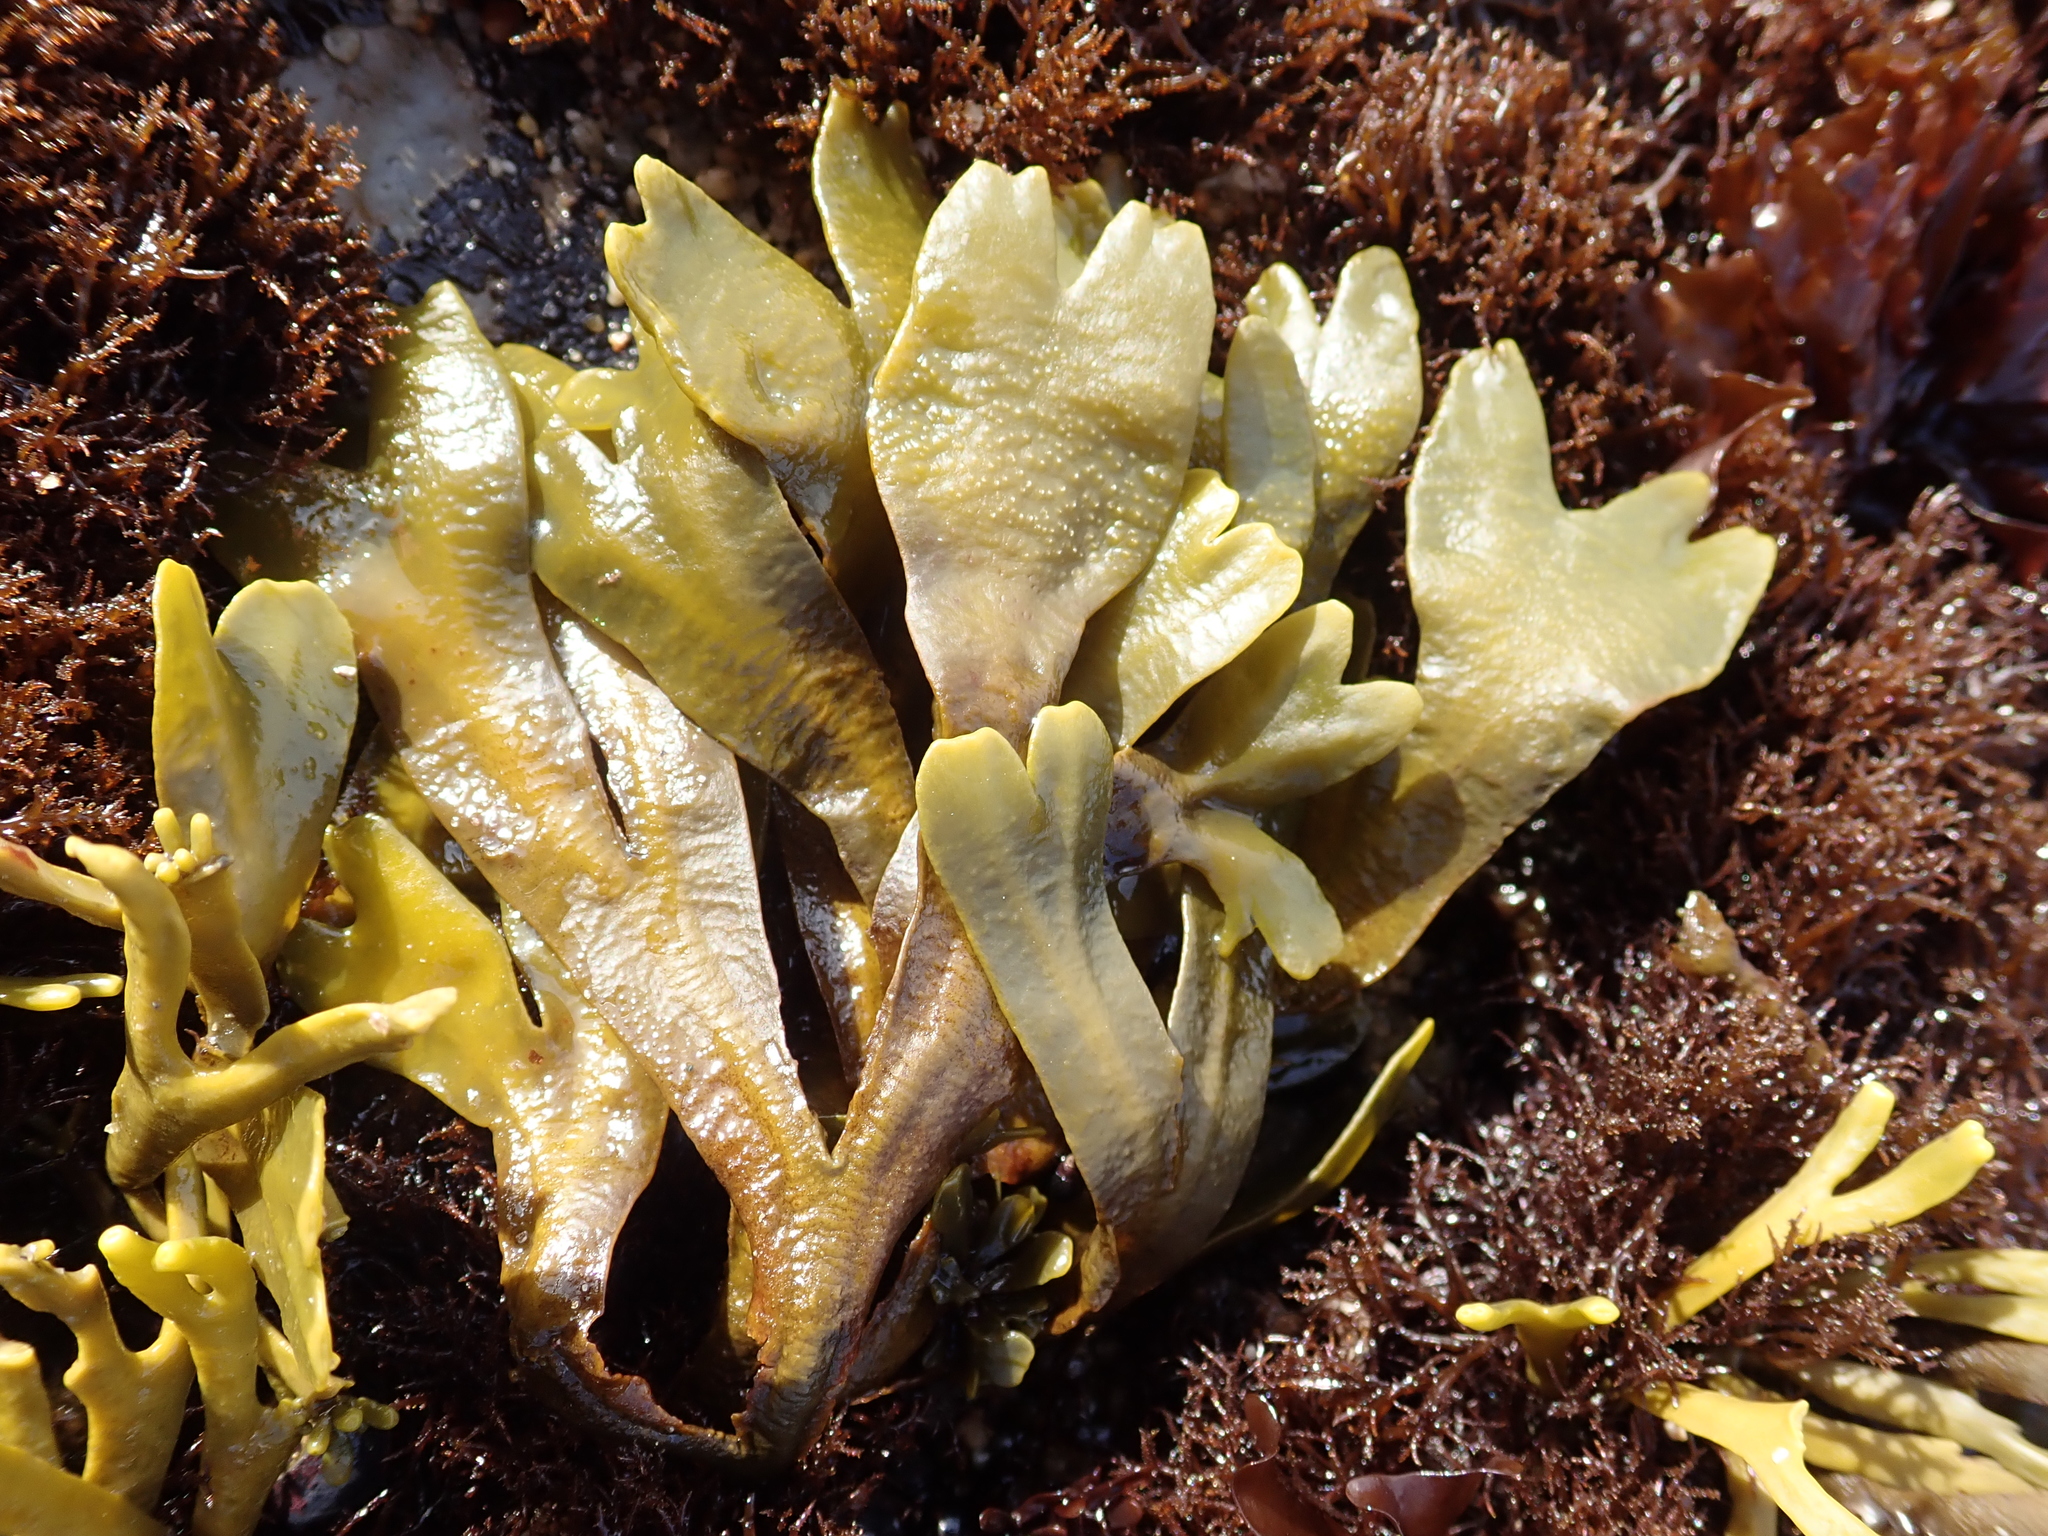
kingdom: Chromista
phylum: Ochrophyta
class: Phaeophyceae
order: Fucales
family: Fucaceae
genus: Fucus
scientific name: Fucus distichus
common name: Rockweed
